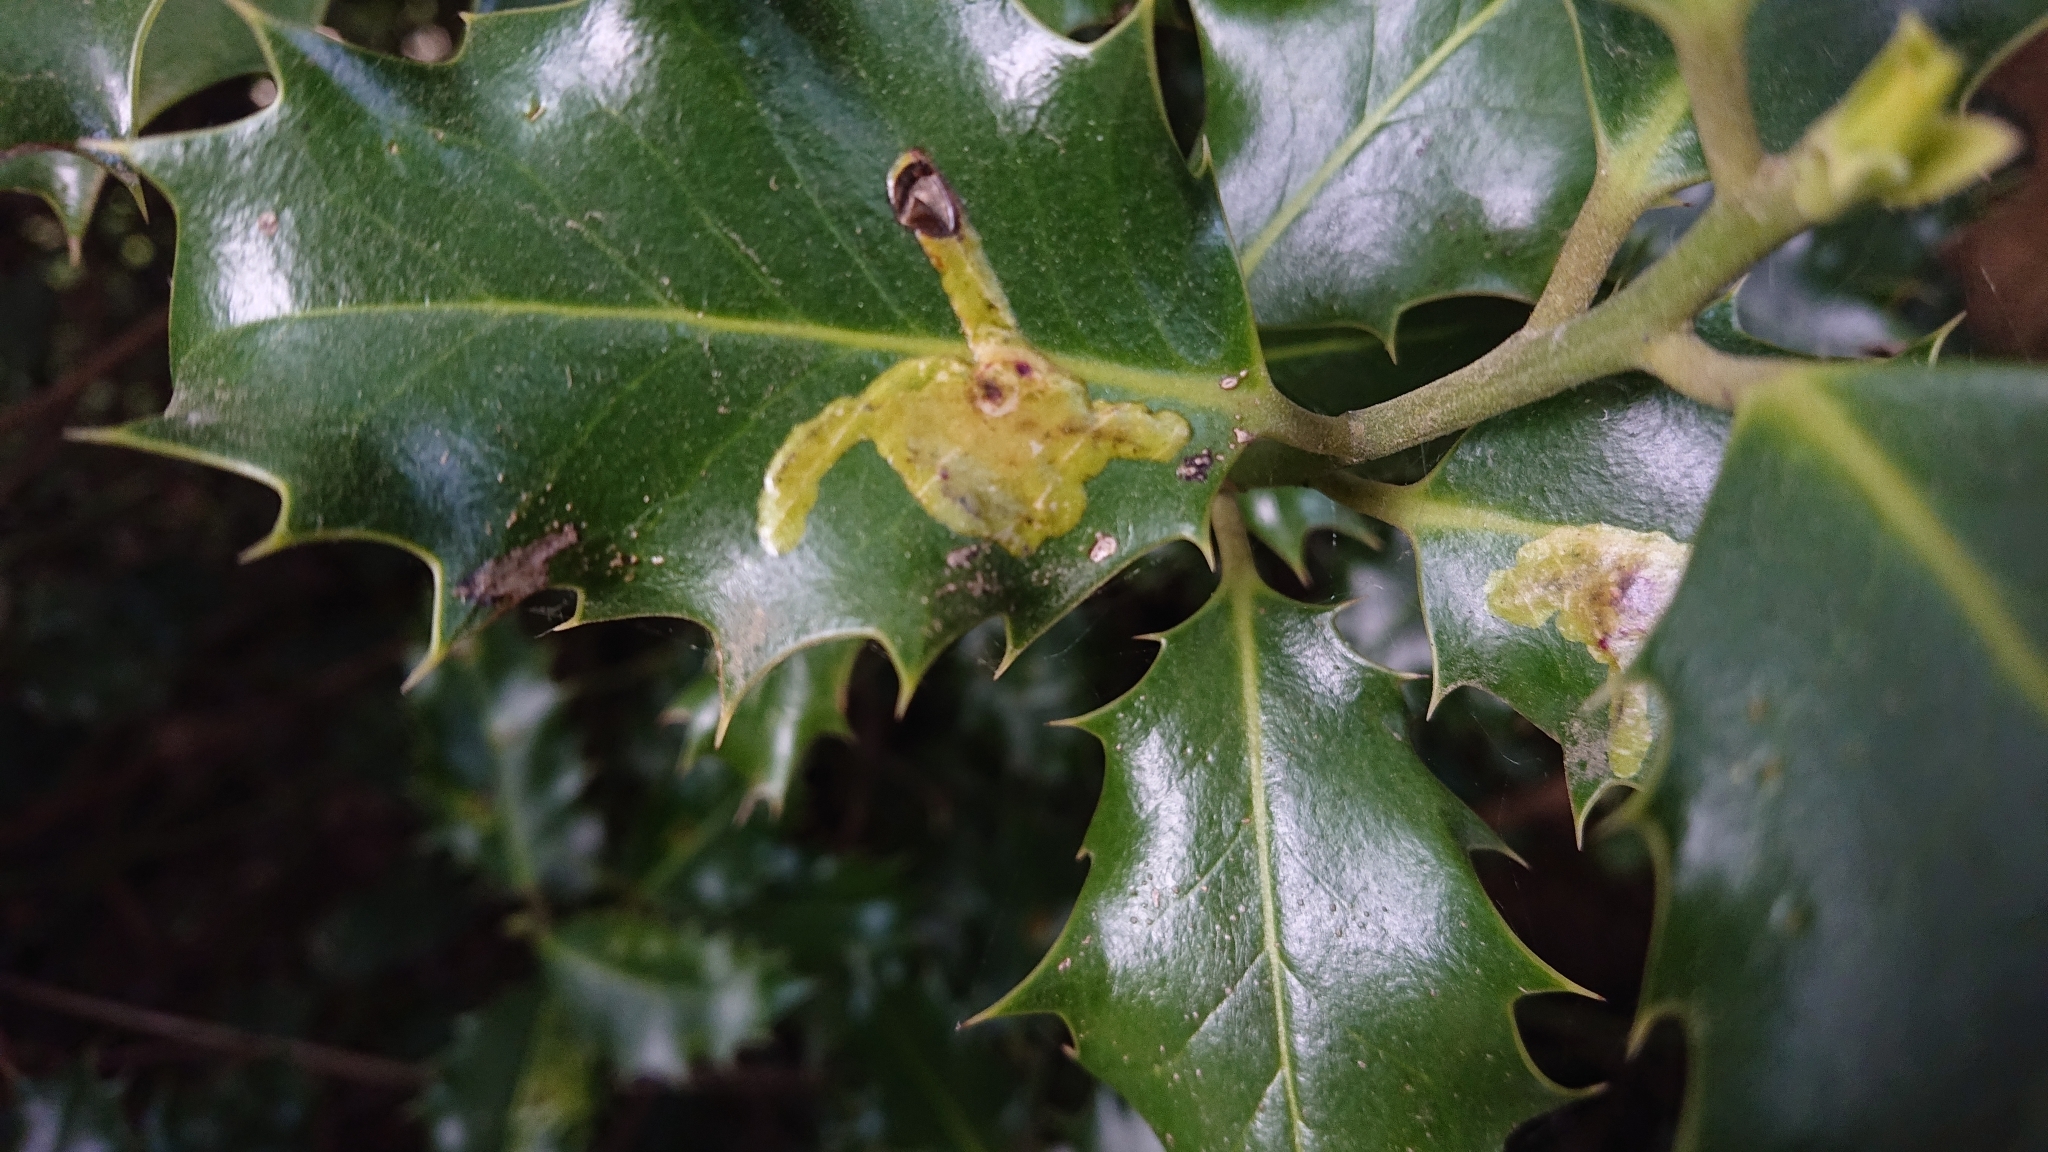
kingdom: Animalia
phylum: Arthropoda
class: Insecta
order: Diptera
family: Agromyzidae
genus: Phytomyza
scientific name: Phytomyza ilicis
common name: Holly leafminer
